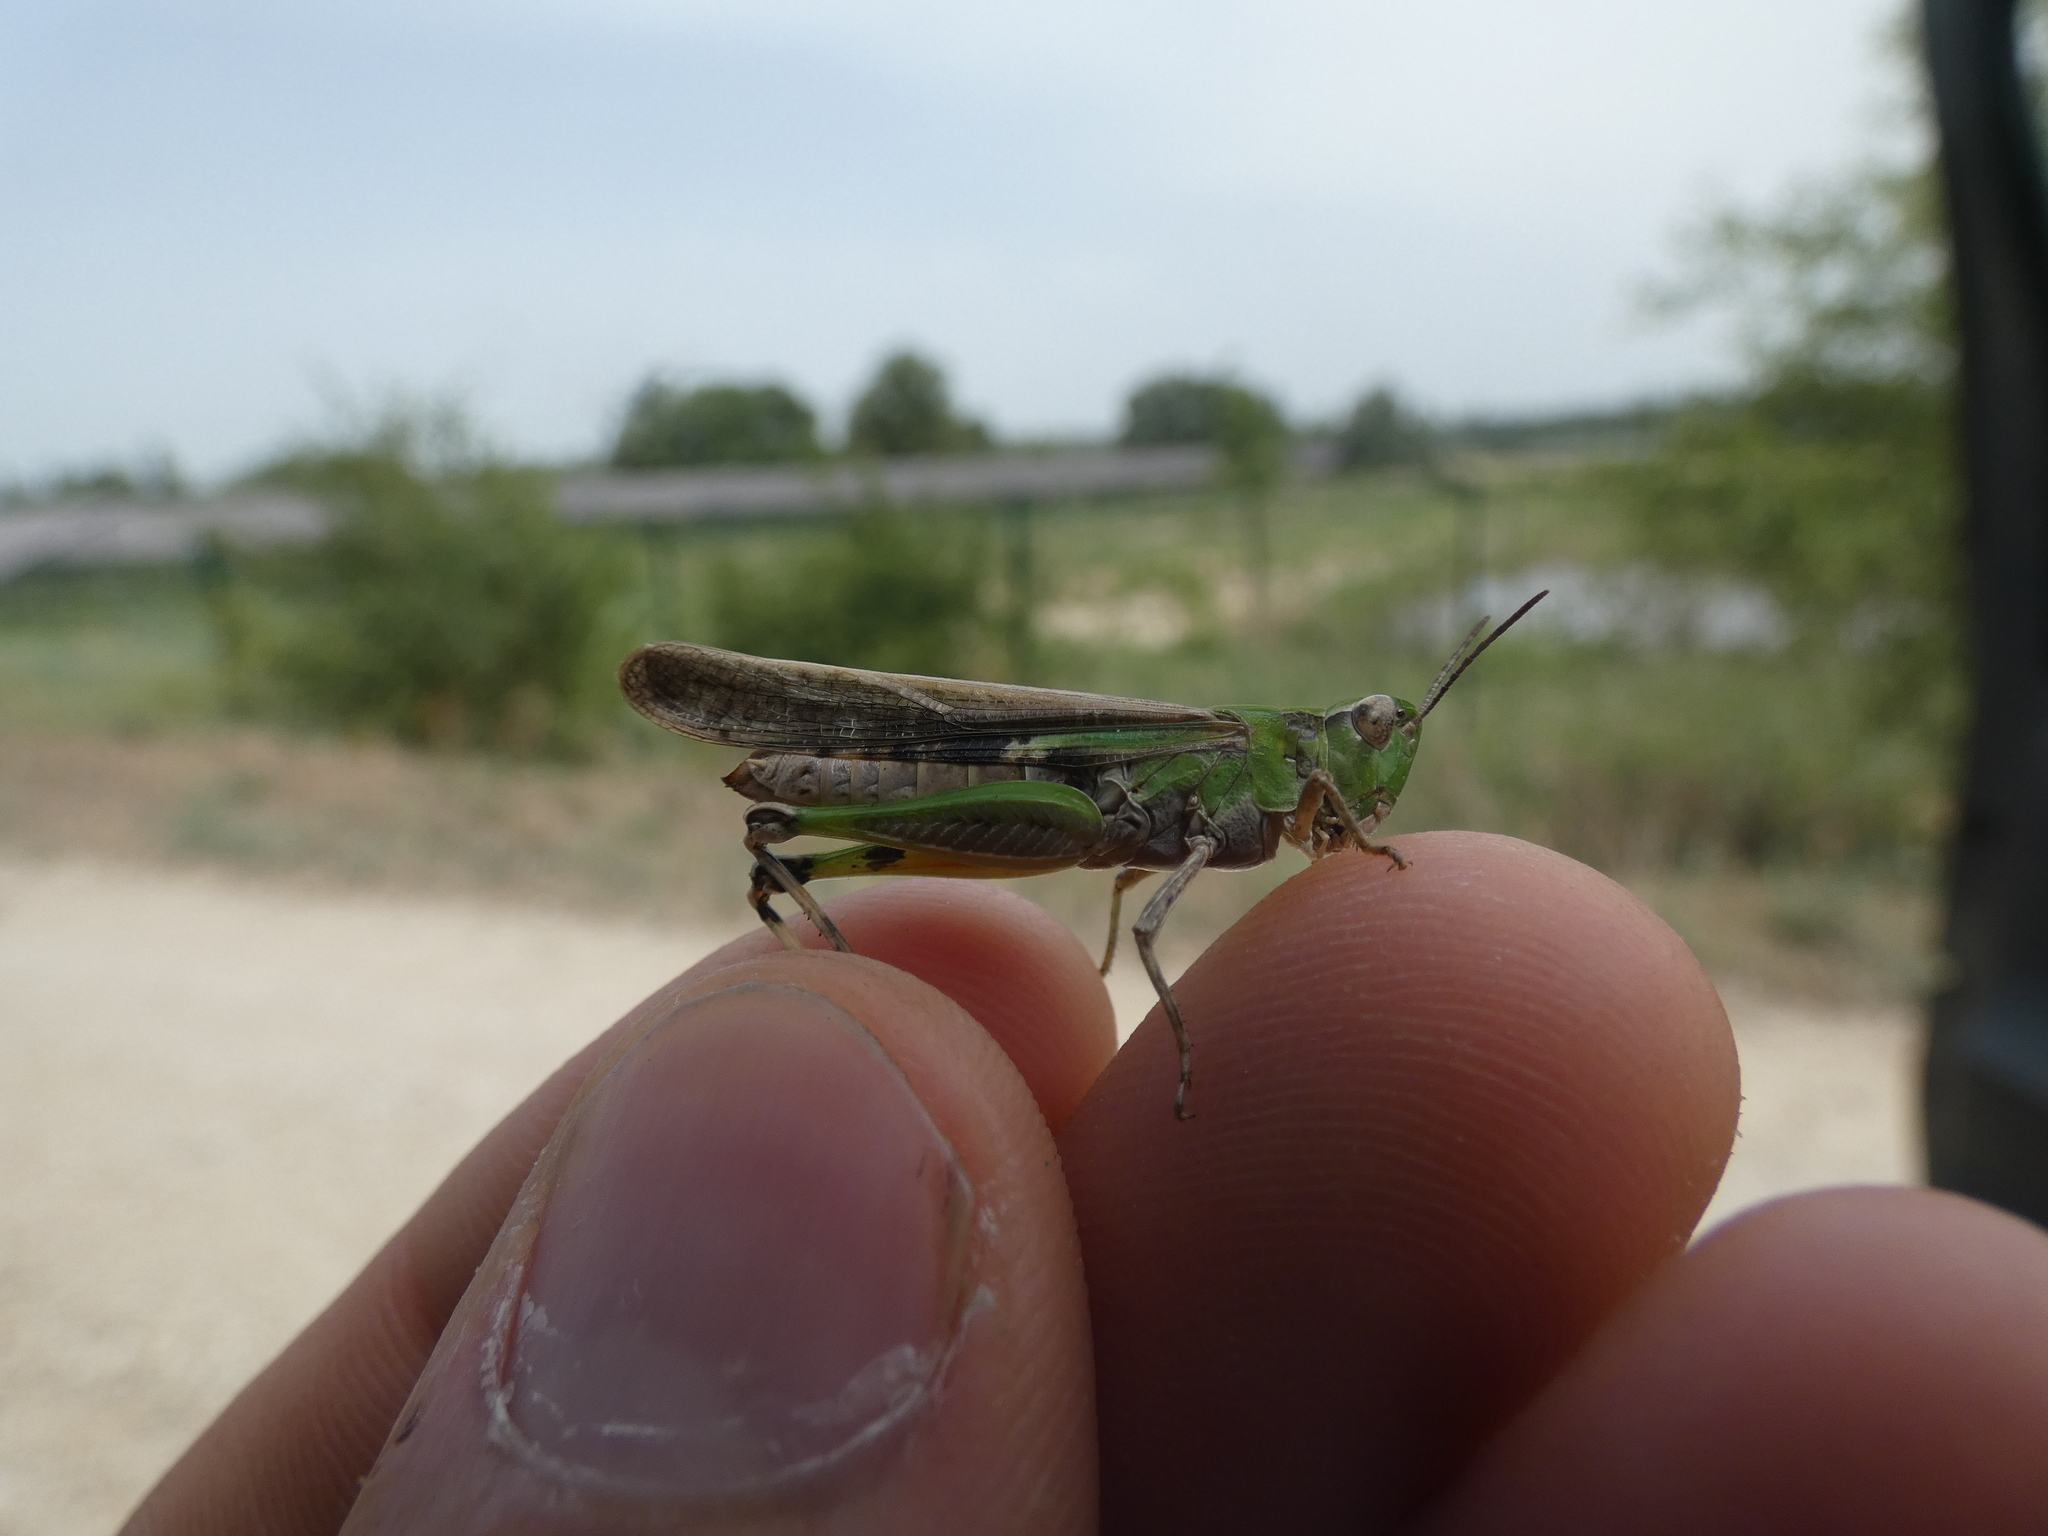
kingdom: Animalia
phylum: Arthropoda
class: Insecta
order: Orthoptera
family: Acrididae
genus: Aiolopus
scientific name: Aiolopus puissanti
